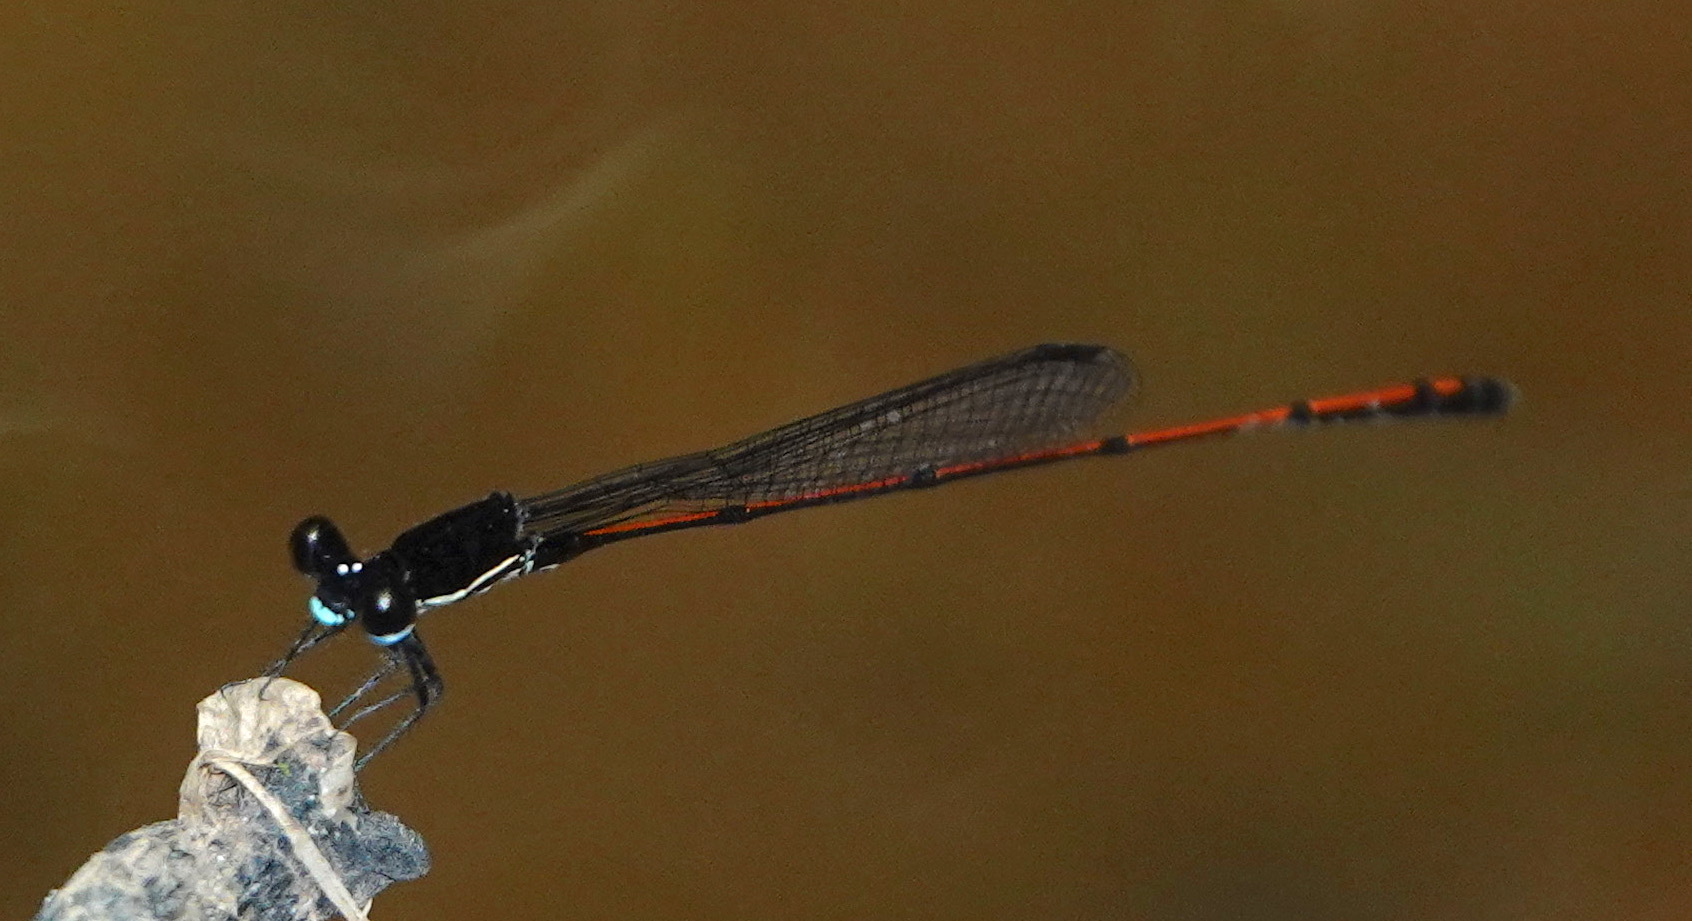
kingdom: Animalia
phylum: Arthropoda
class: Insecta
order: Odonata
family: Platycnemididae
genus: Prodasineura
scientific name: Prodasineura hyperythra
